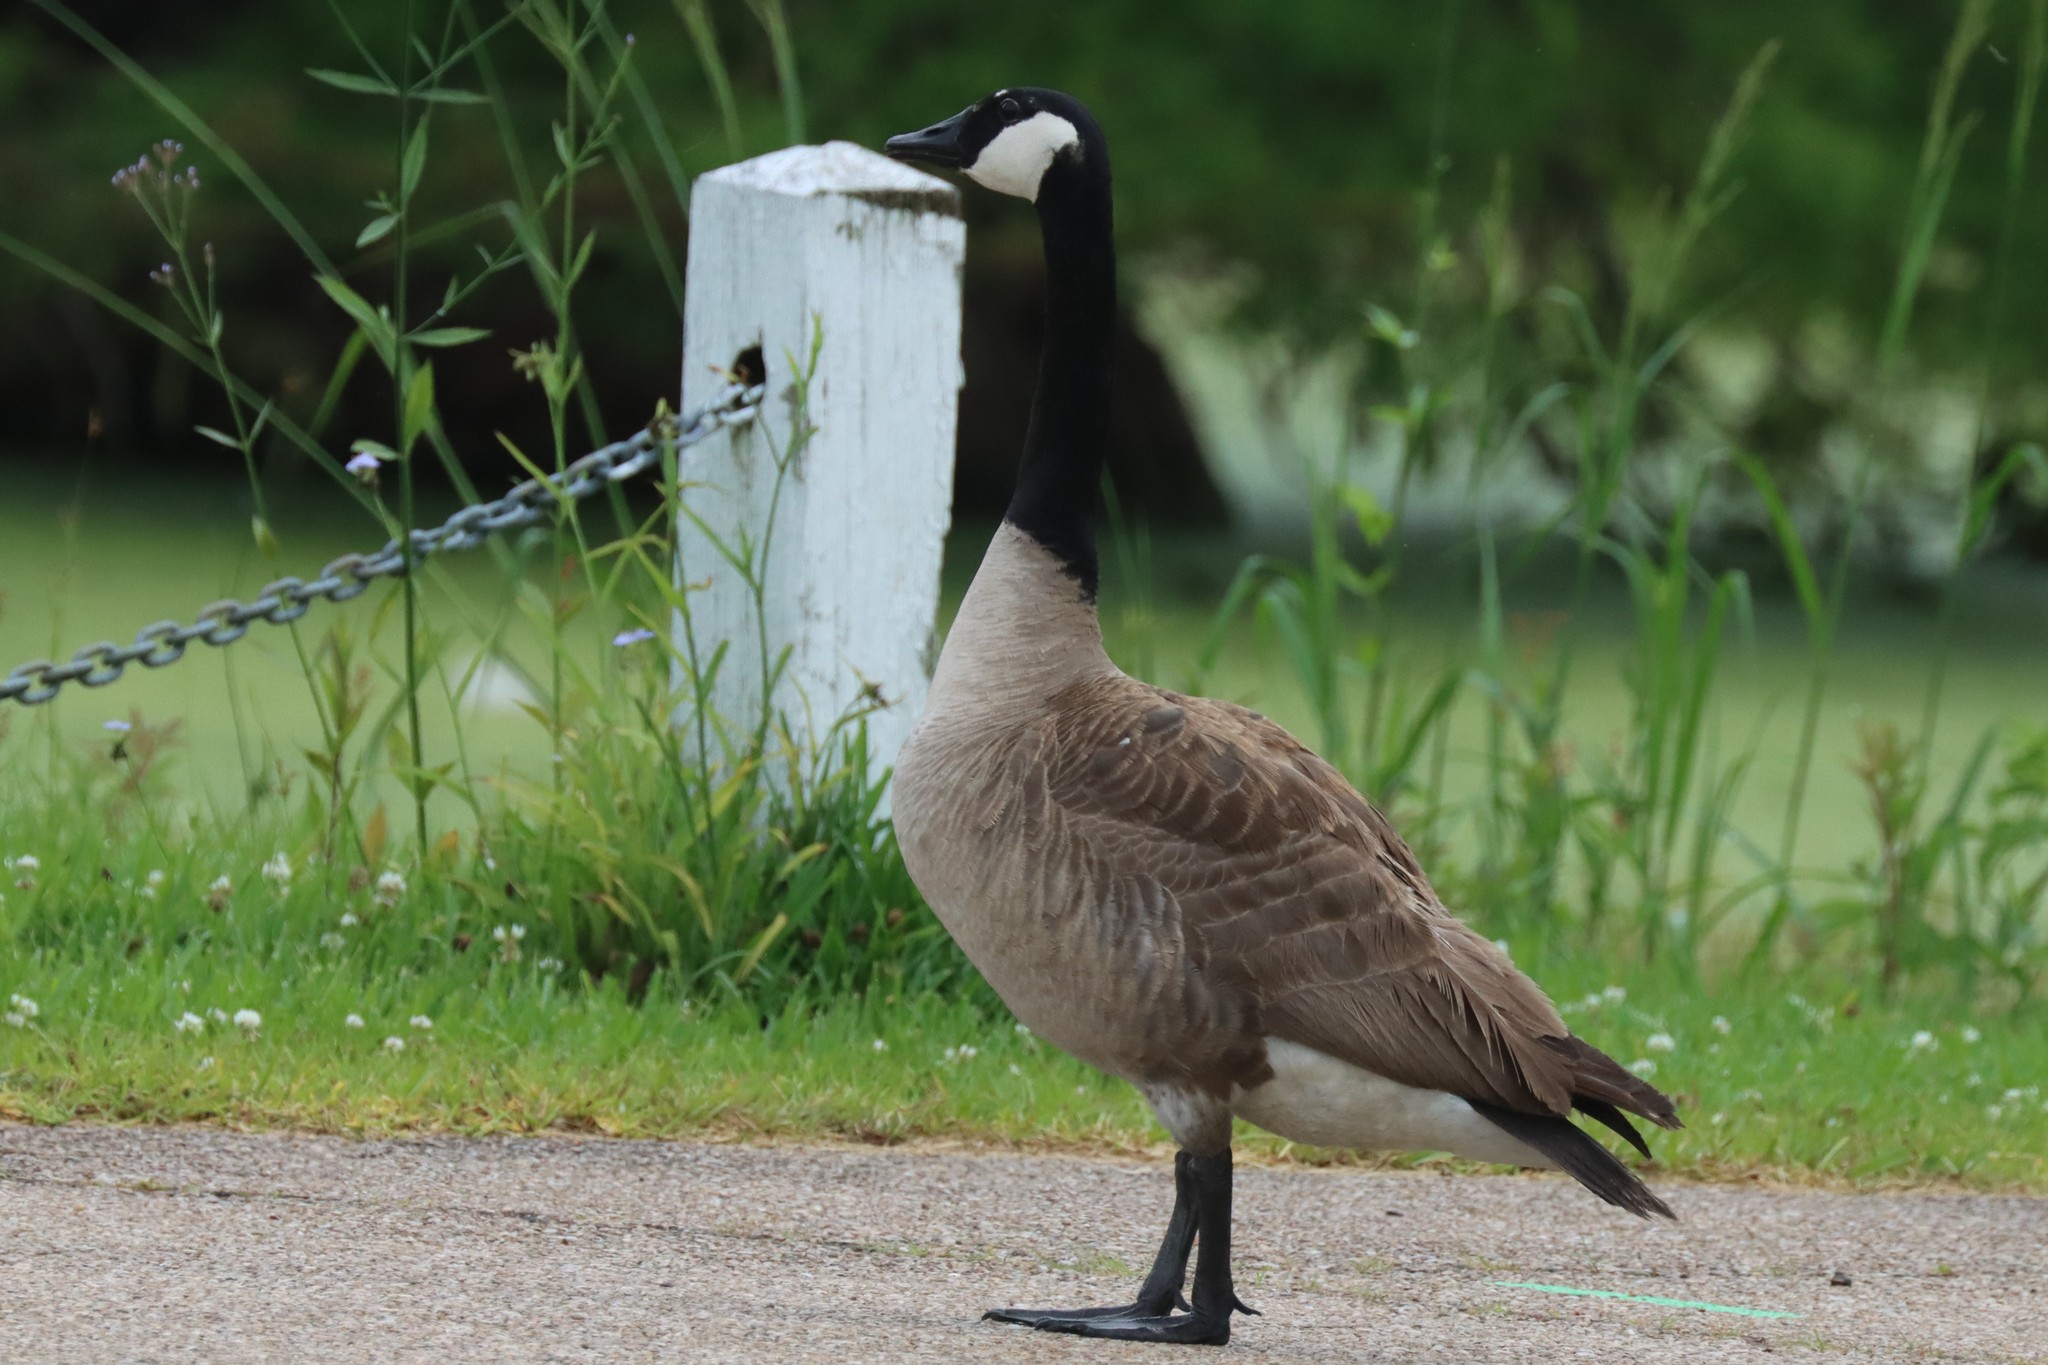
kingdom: Animalia
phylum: Chordata
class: Aves
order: Anseriformes
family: Anatidae
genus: Branta
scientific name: Branta canadensis
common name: Canada goose
